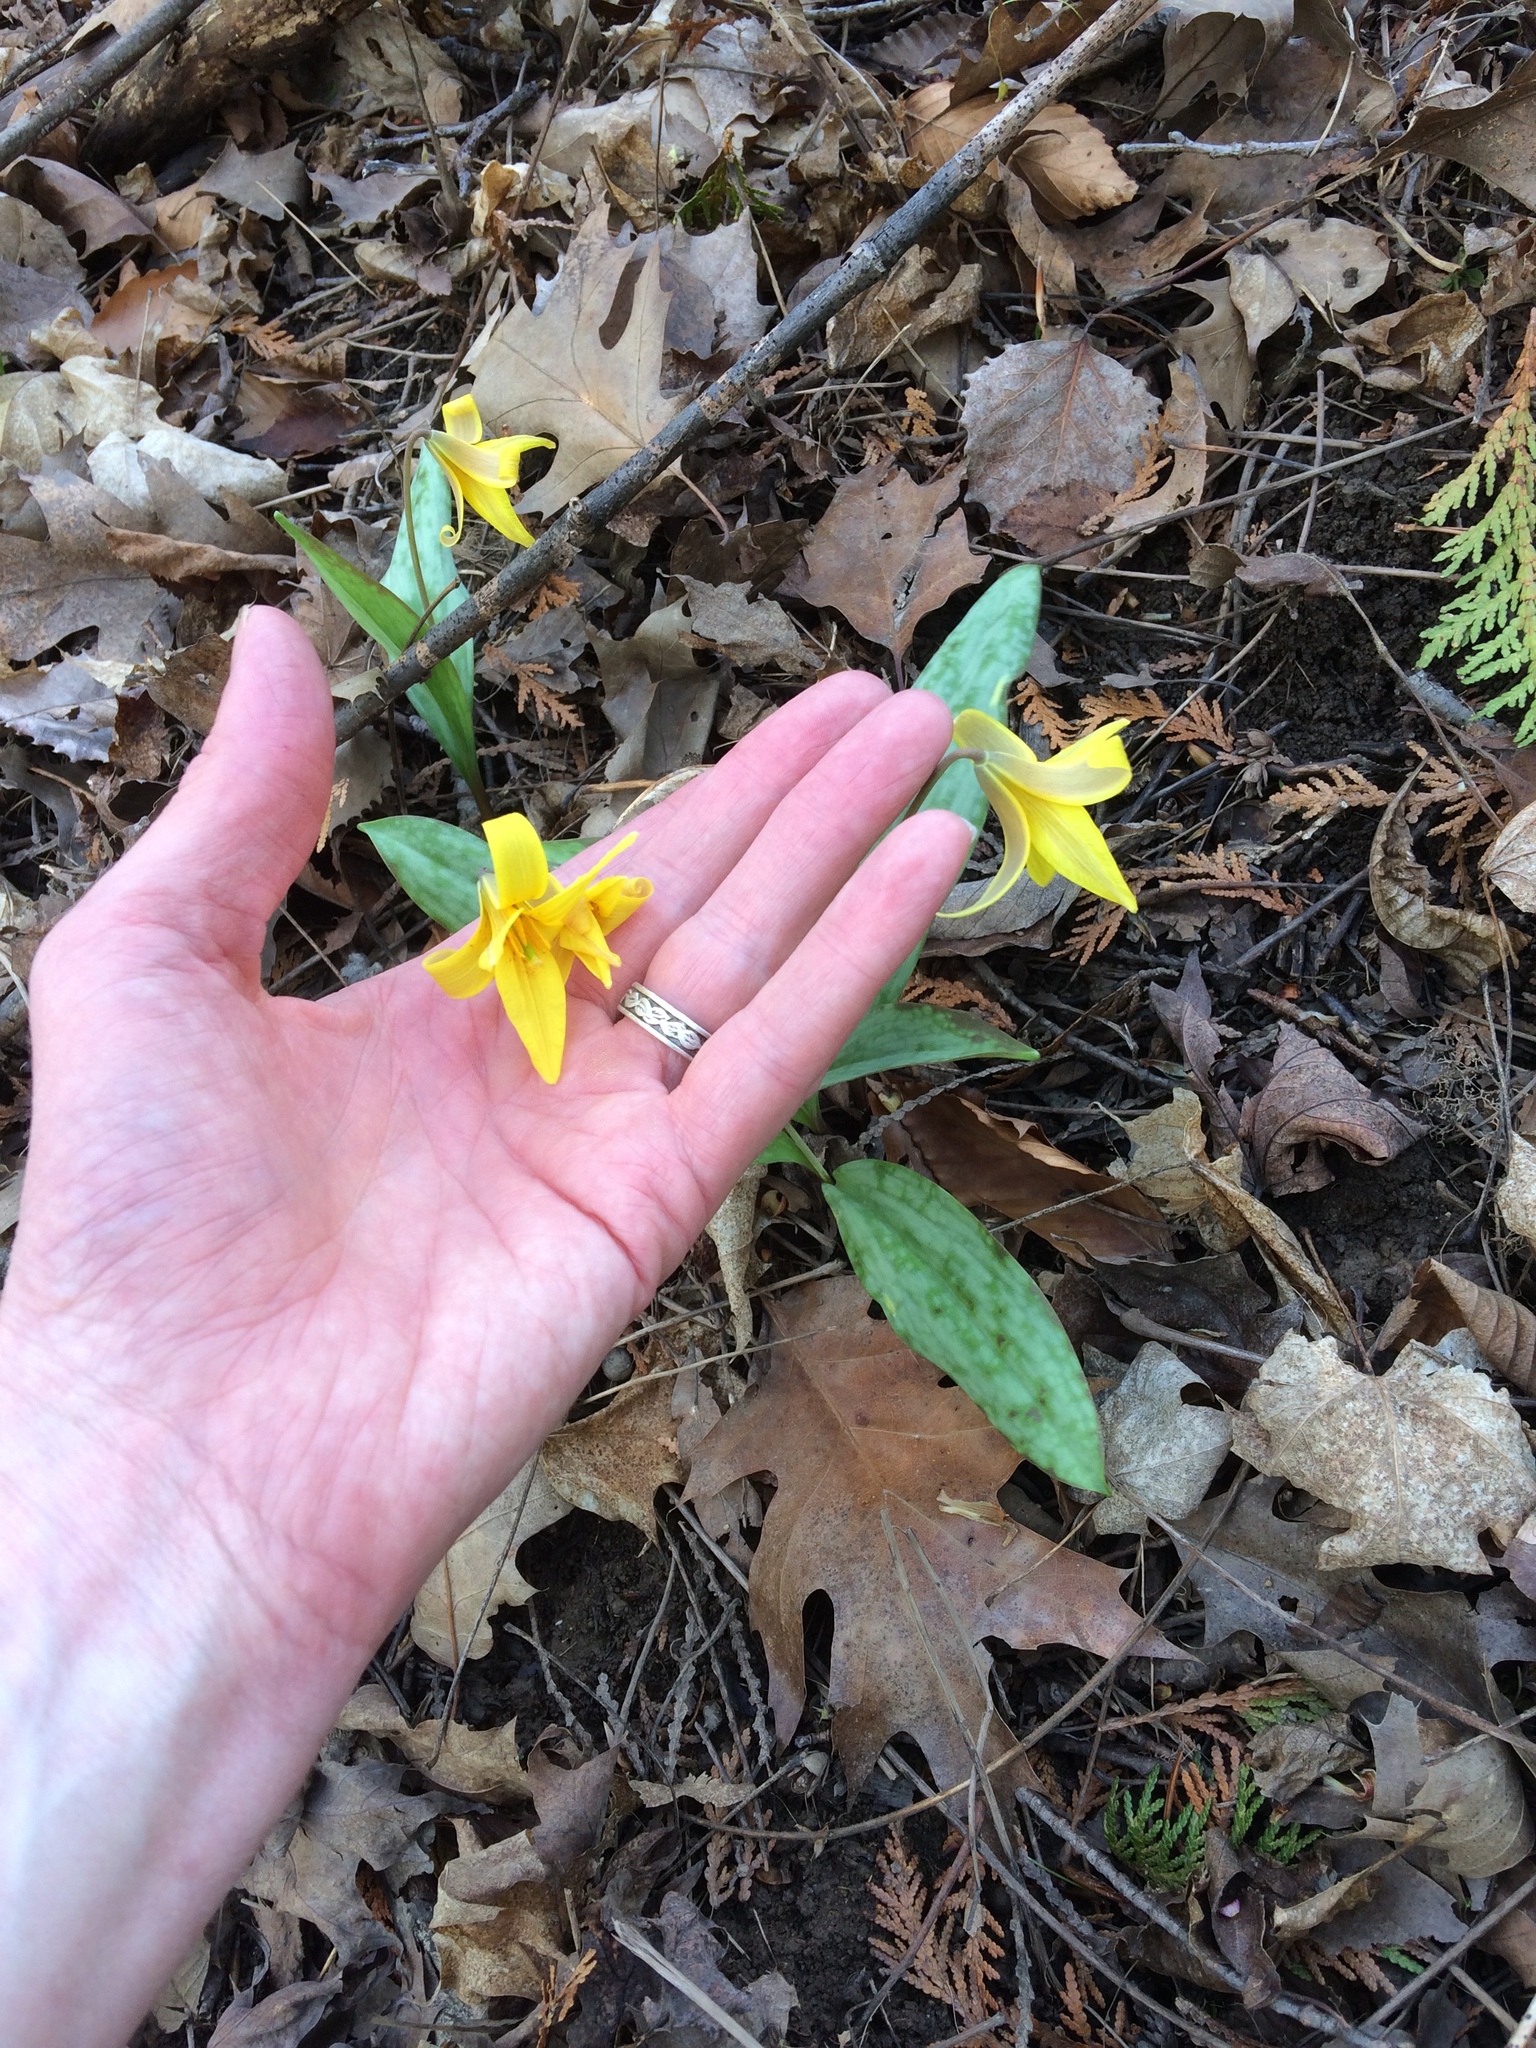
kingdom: Plantae
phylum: Tracheophyta
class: Liliopsida
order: Liliales
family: Liliaceae
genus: Erythronium
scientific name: Erythronium americanum
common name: Yellow adder's-tongue
